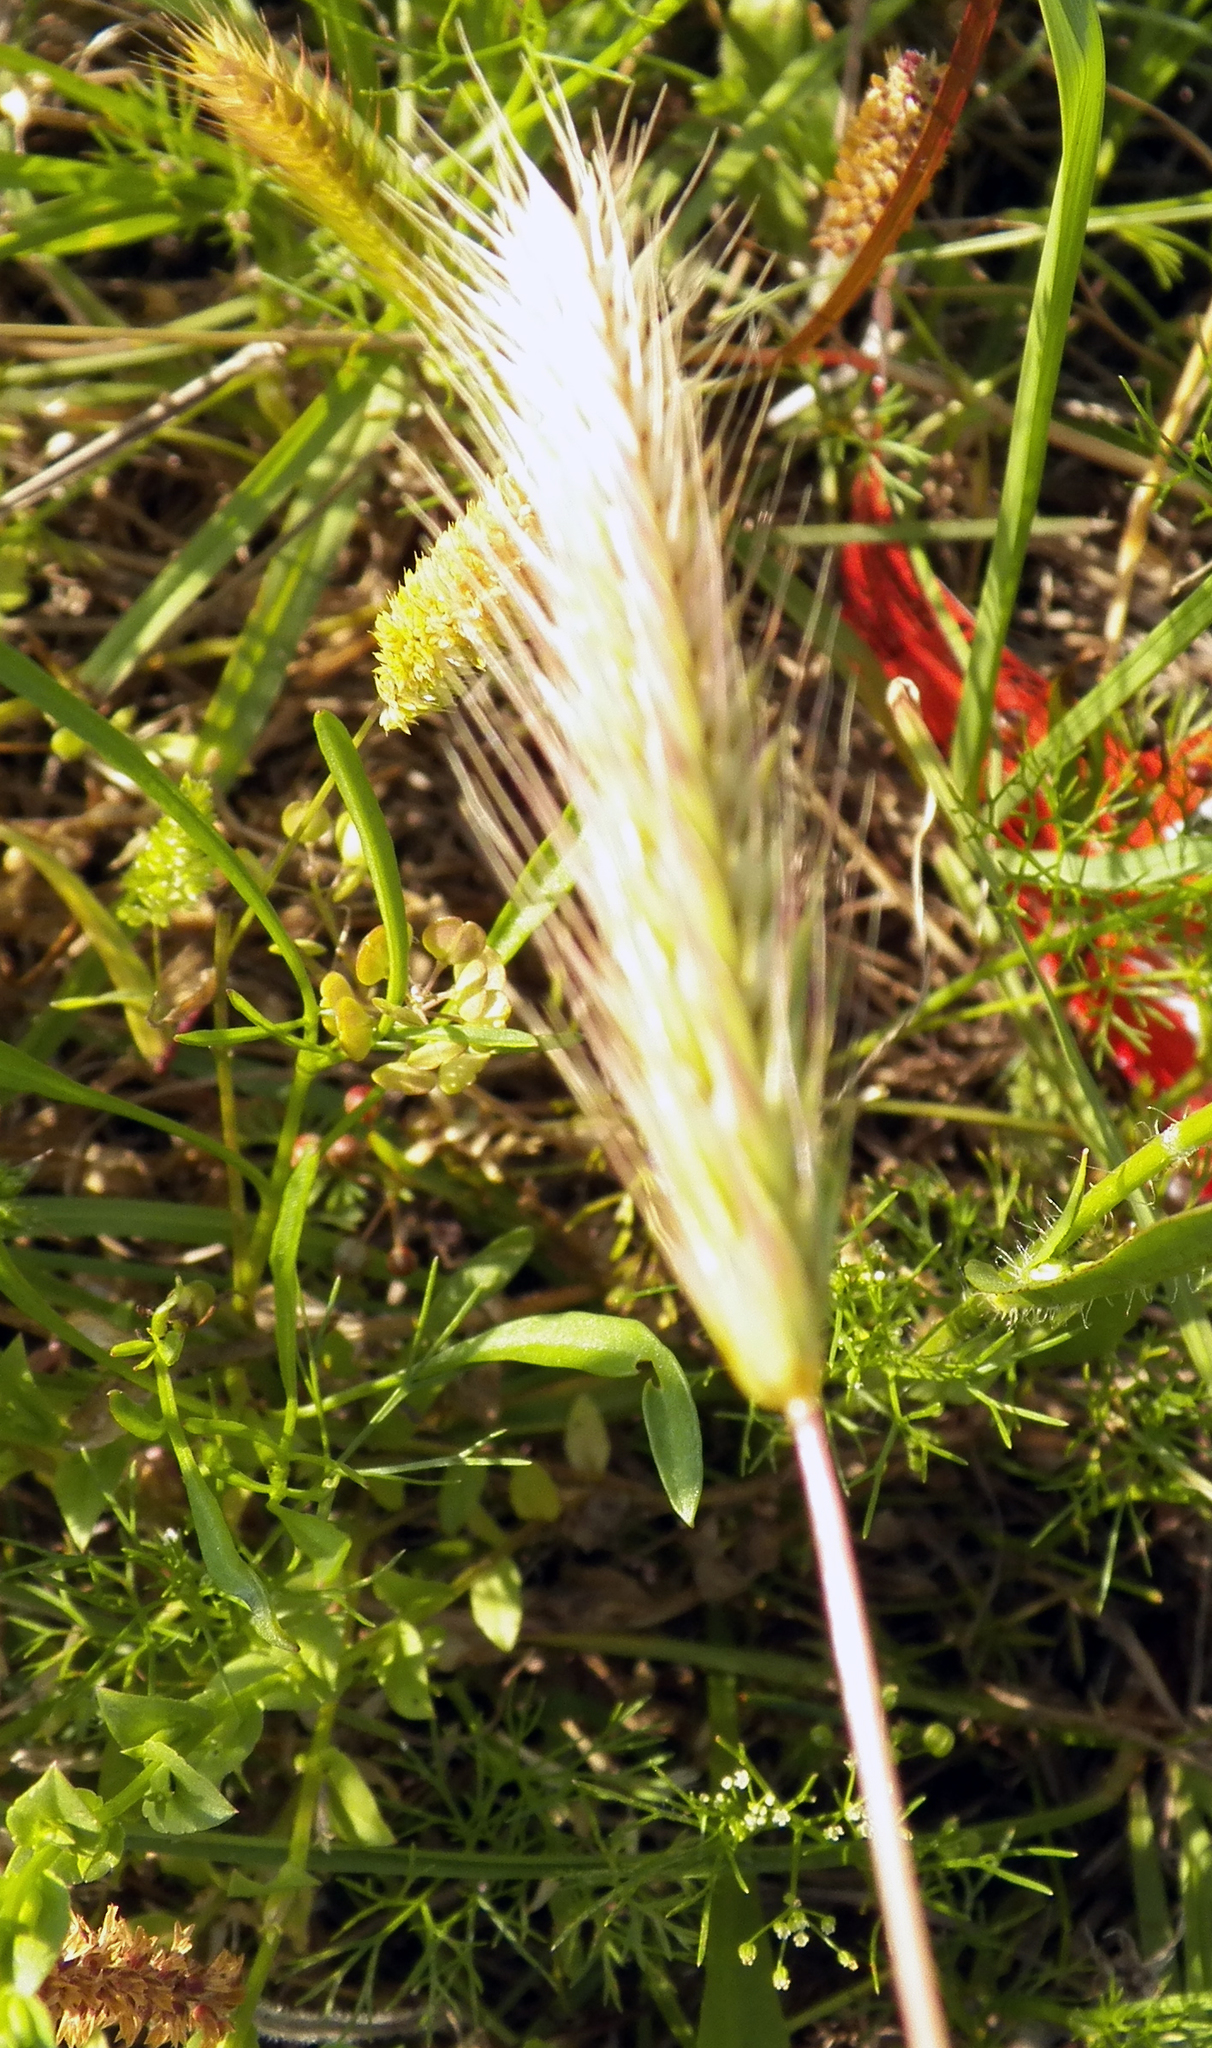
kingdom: Plantae
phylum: Tracheophyta
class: Liliopsida
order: Poales
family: Poaceae
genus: Hordeum
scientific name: Hordeum pusillum
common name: Little barley
